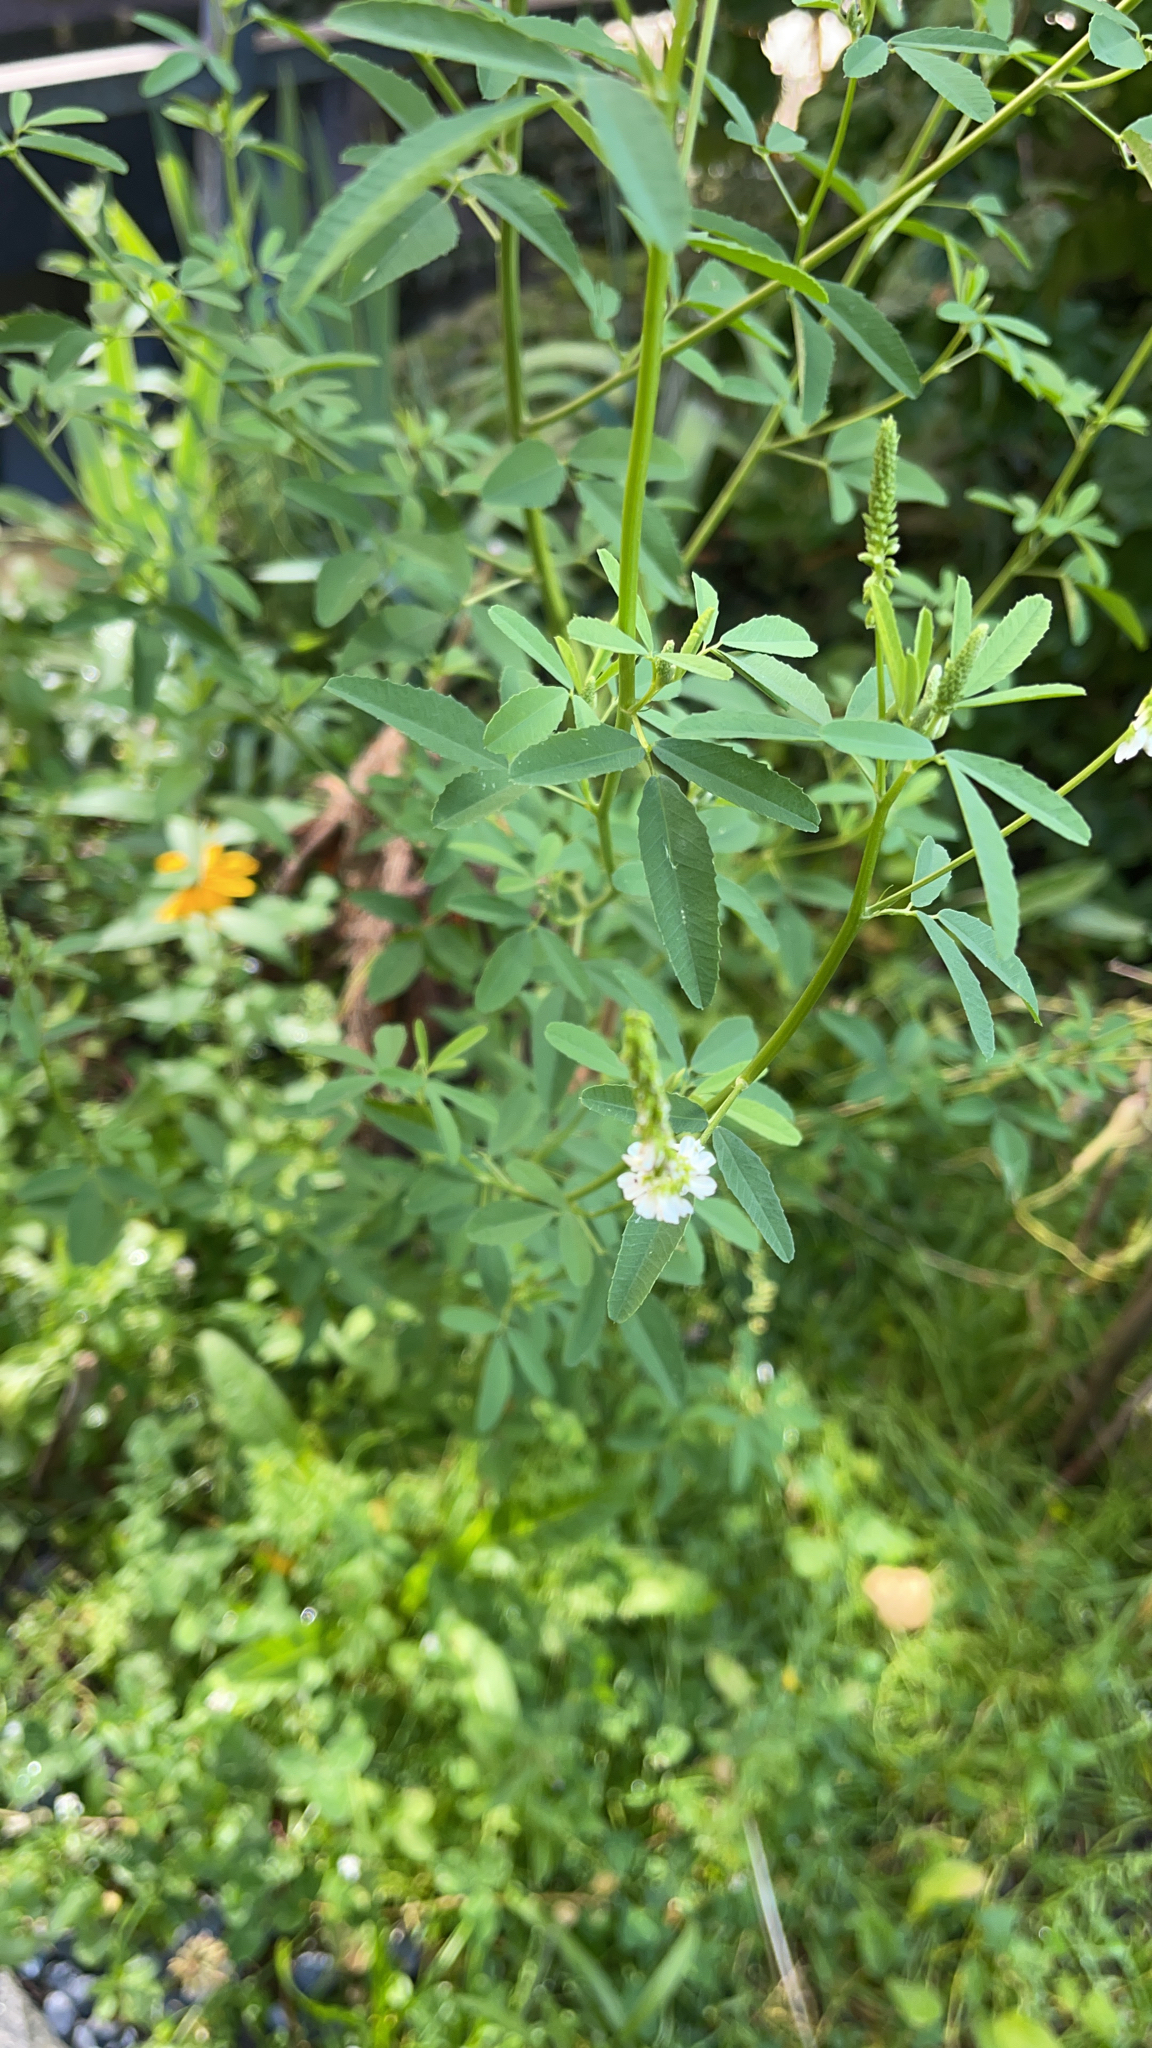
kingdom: Plantae
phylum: Tracheophyta
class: Magnoliopsida
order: Fabales
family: Fabaceae
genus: Melilotus
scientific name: Melilotus albus
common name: White melilot
